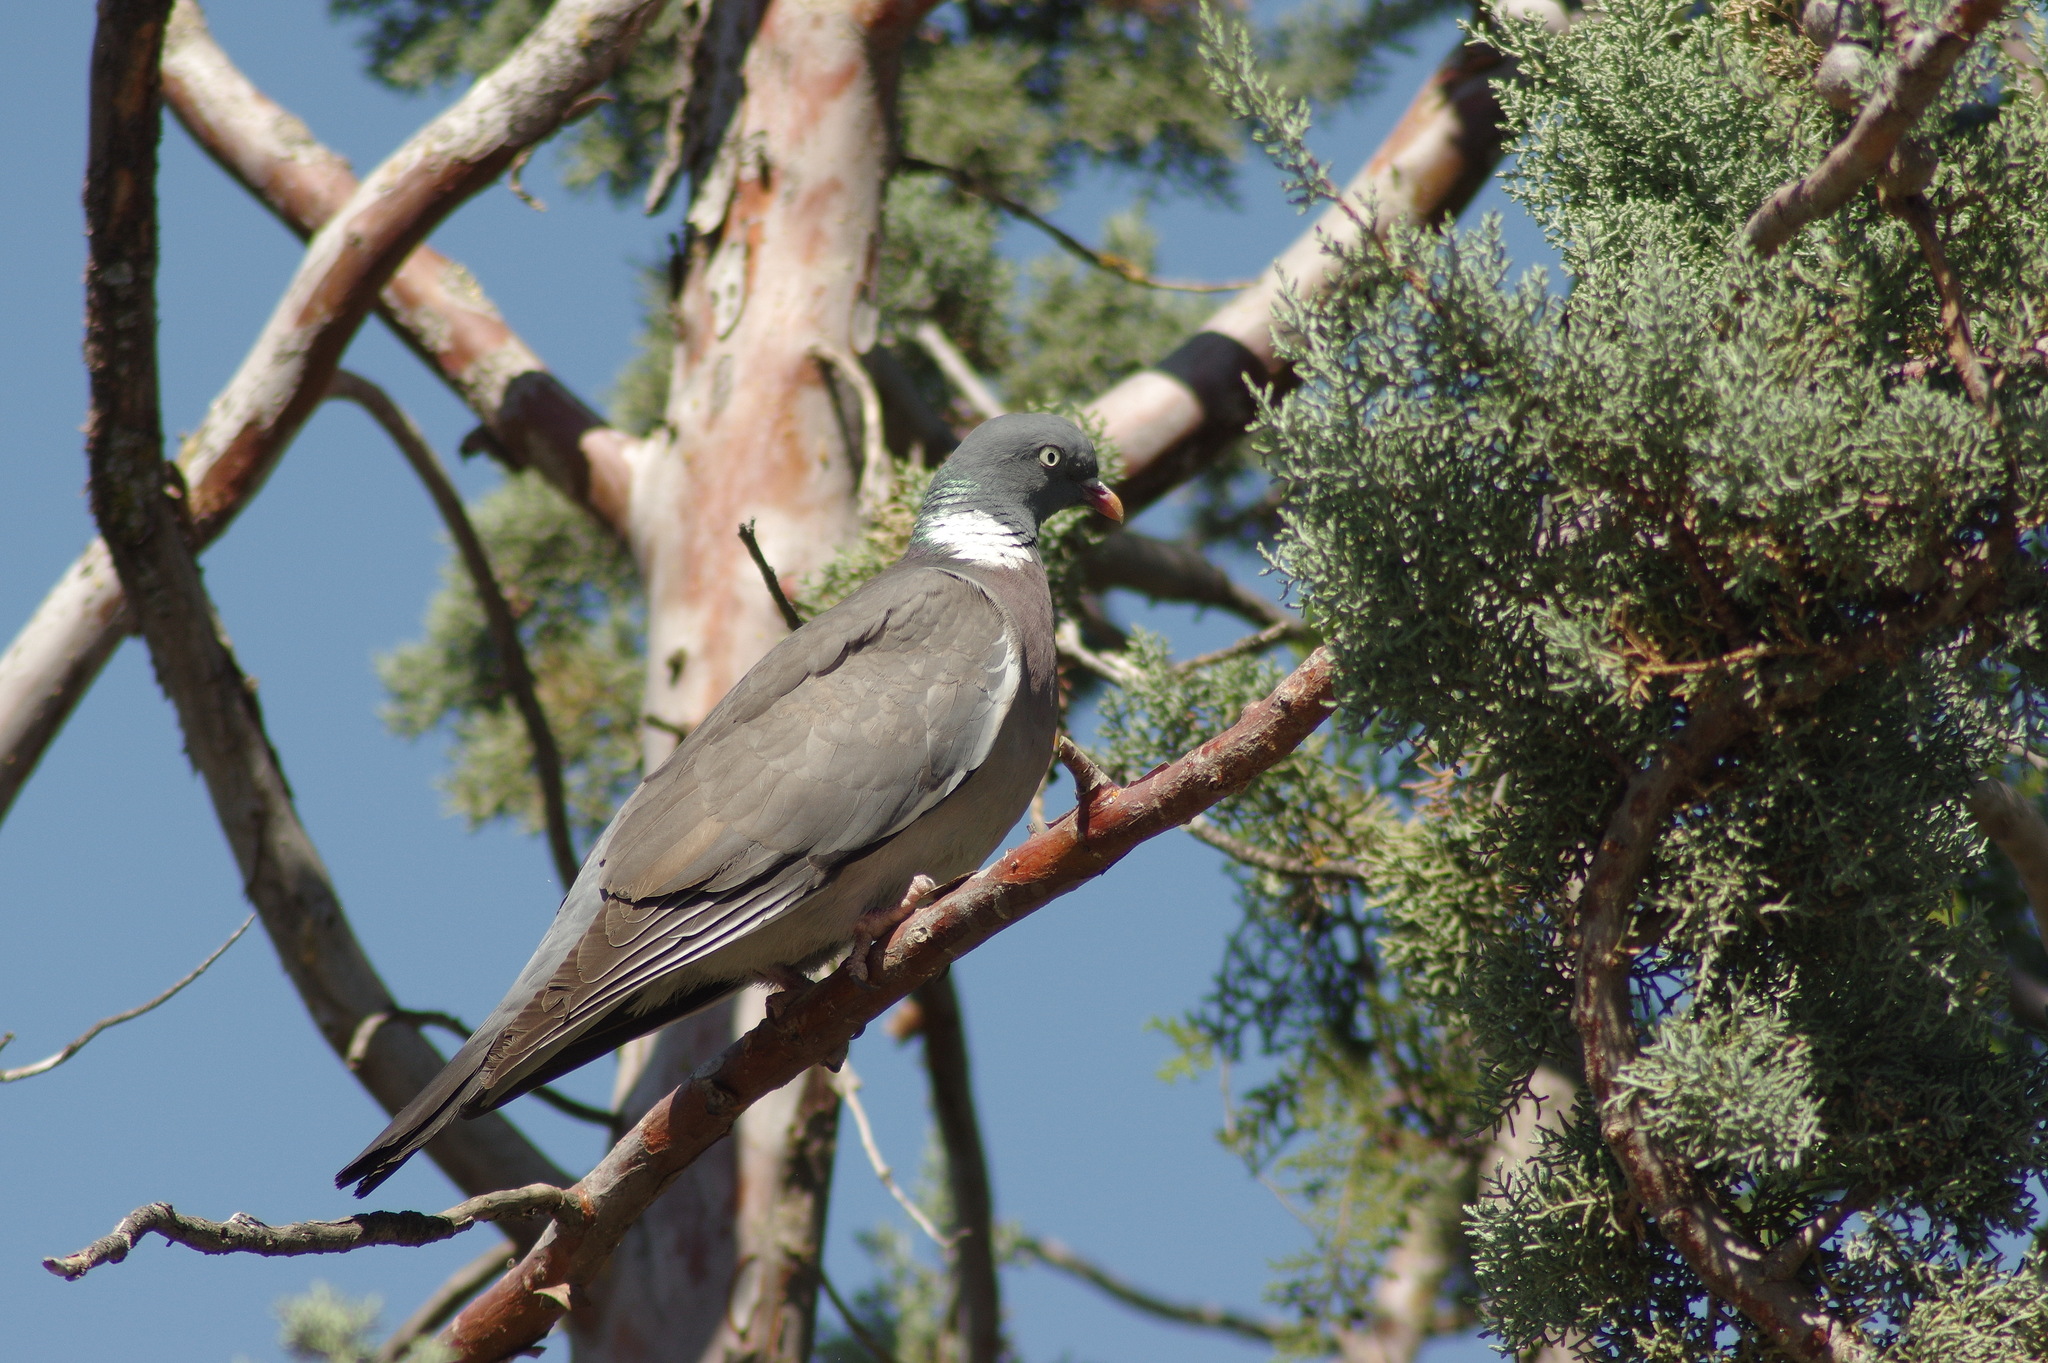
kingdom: Animalia
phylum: Chordata
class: Aves
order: Columbiformes
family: Columbidae
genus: Columba
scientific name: Columba palumbus
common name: Common wood pigeon
